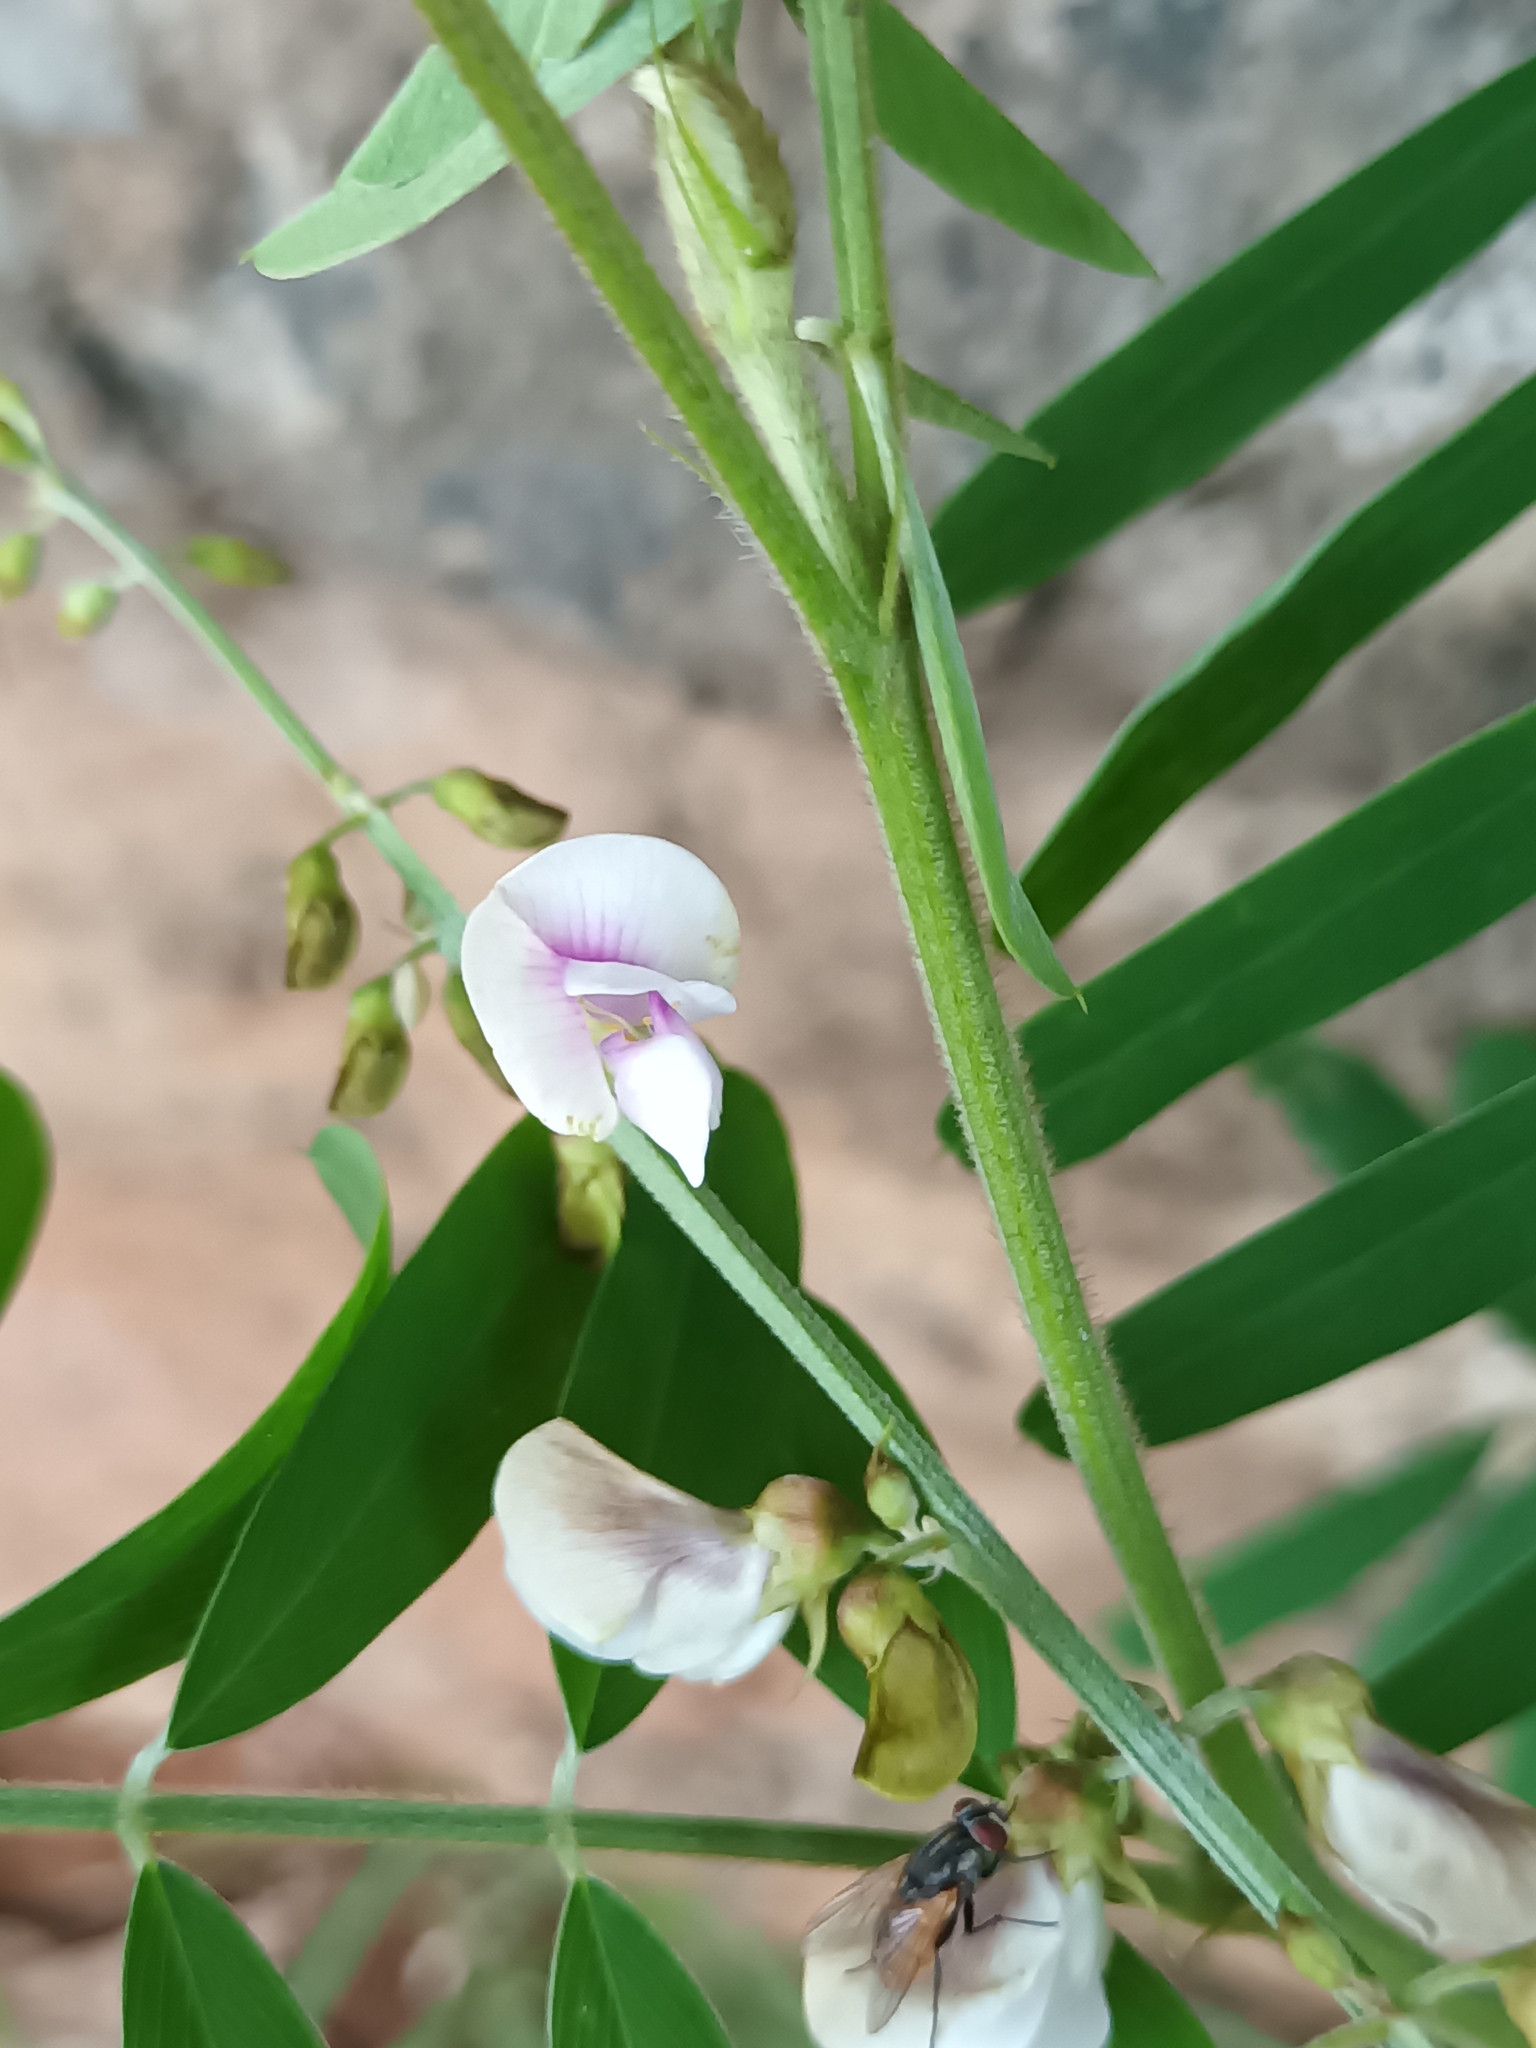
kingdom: Plantae
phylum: Tracheophyta
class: Magnoliopsida
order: Fabales
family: Fabaceae
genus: Tephrosia
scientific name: Tephrosia noctiflora
